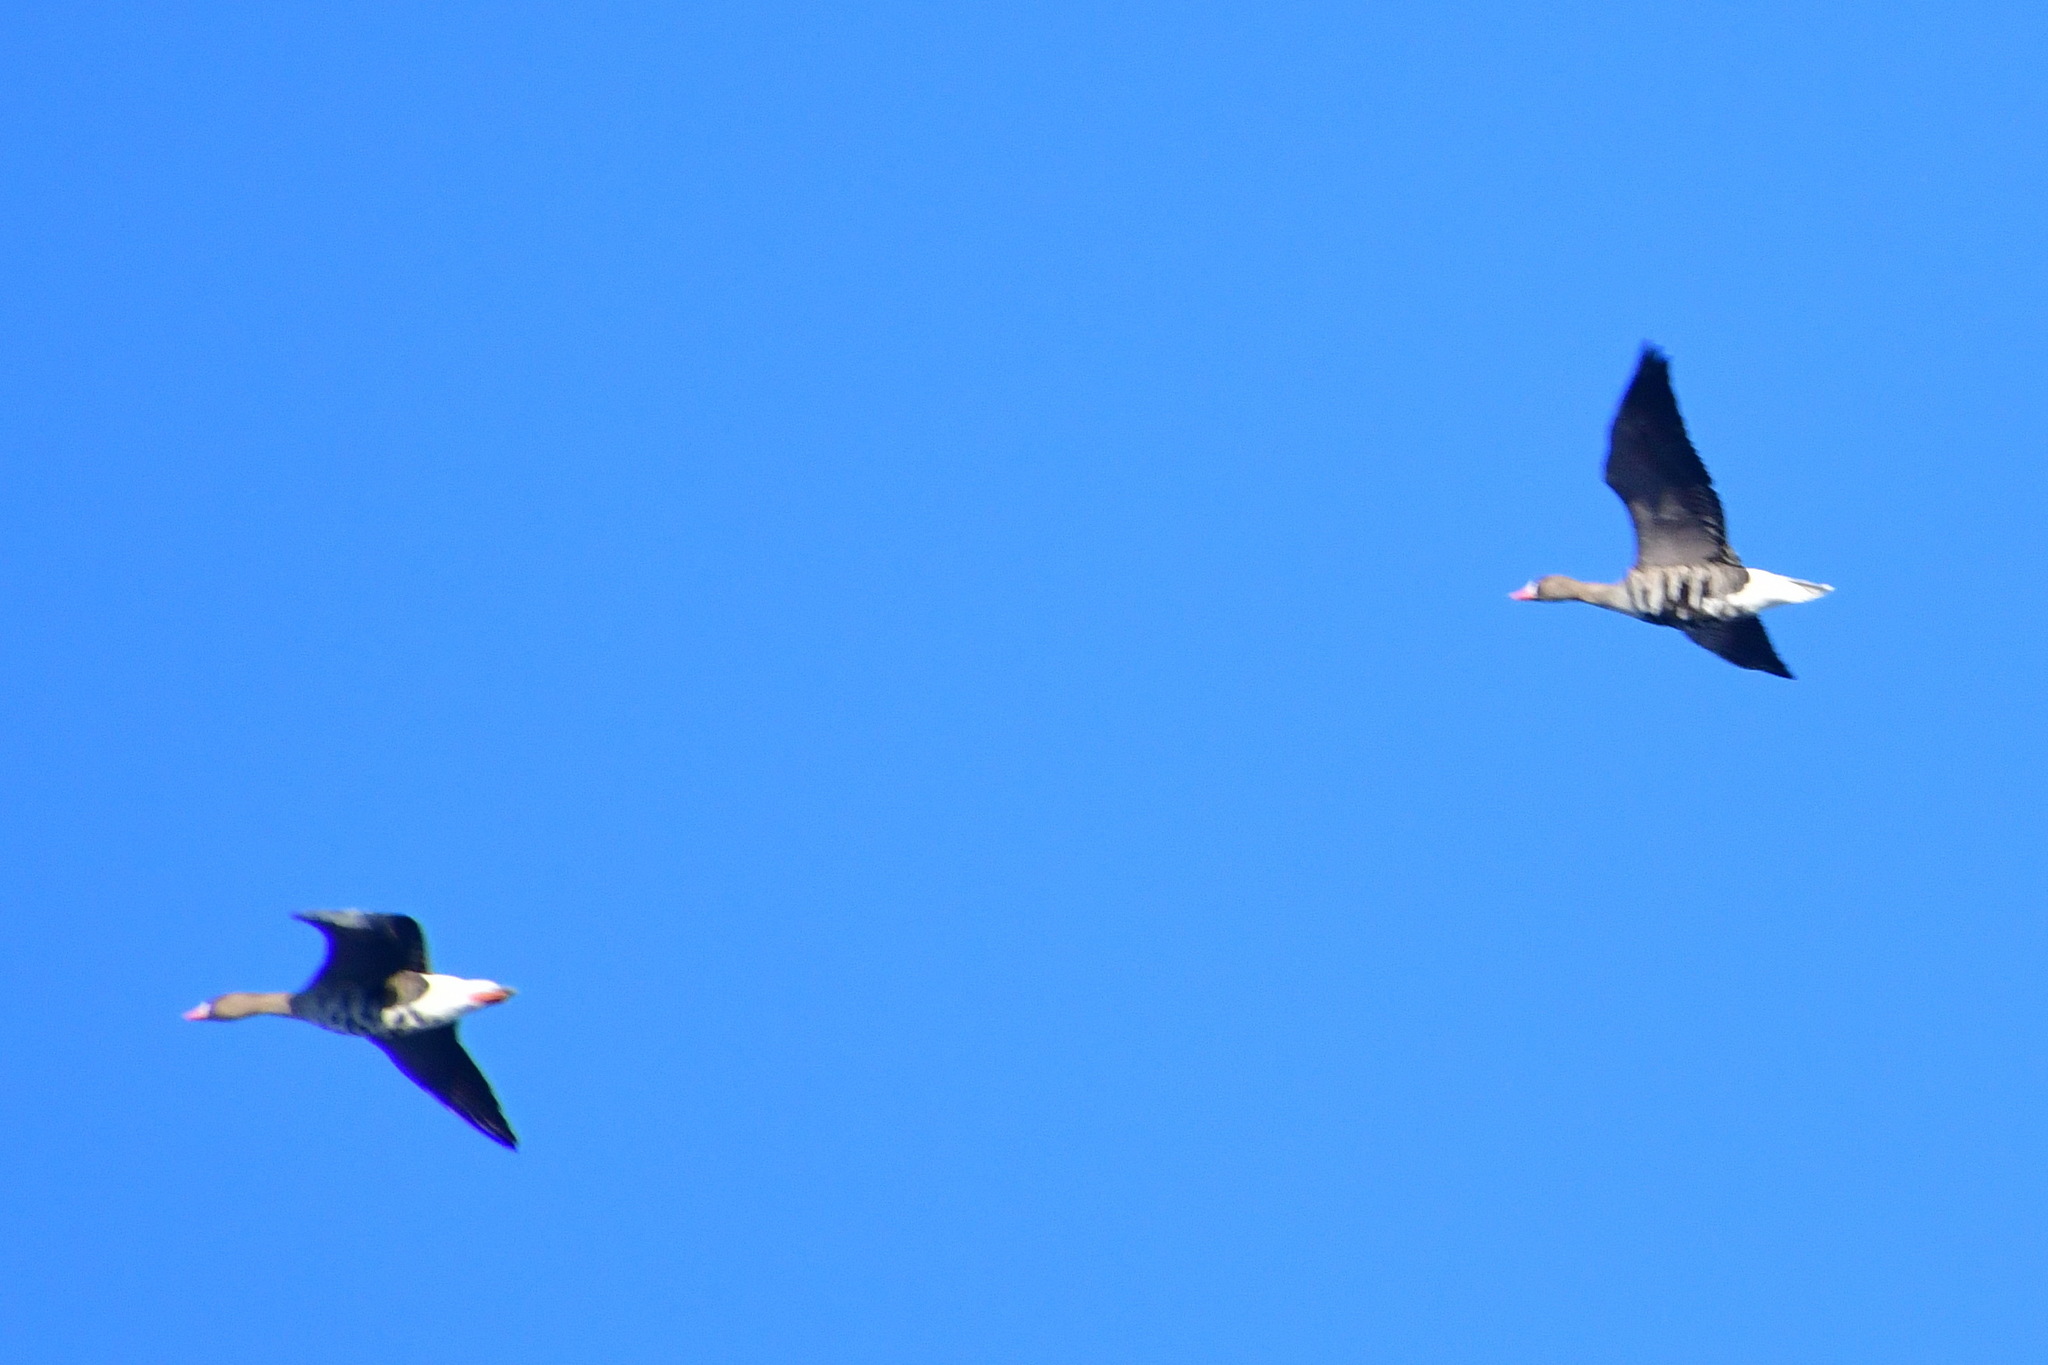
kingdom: Animalia
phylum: Chordata
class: Aves
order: Anseriformes
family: Anatidae
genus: Anser
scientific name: Anser albifrons
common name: Greater white-fronted goose
